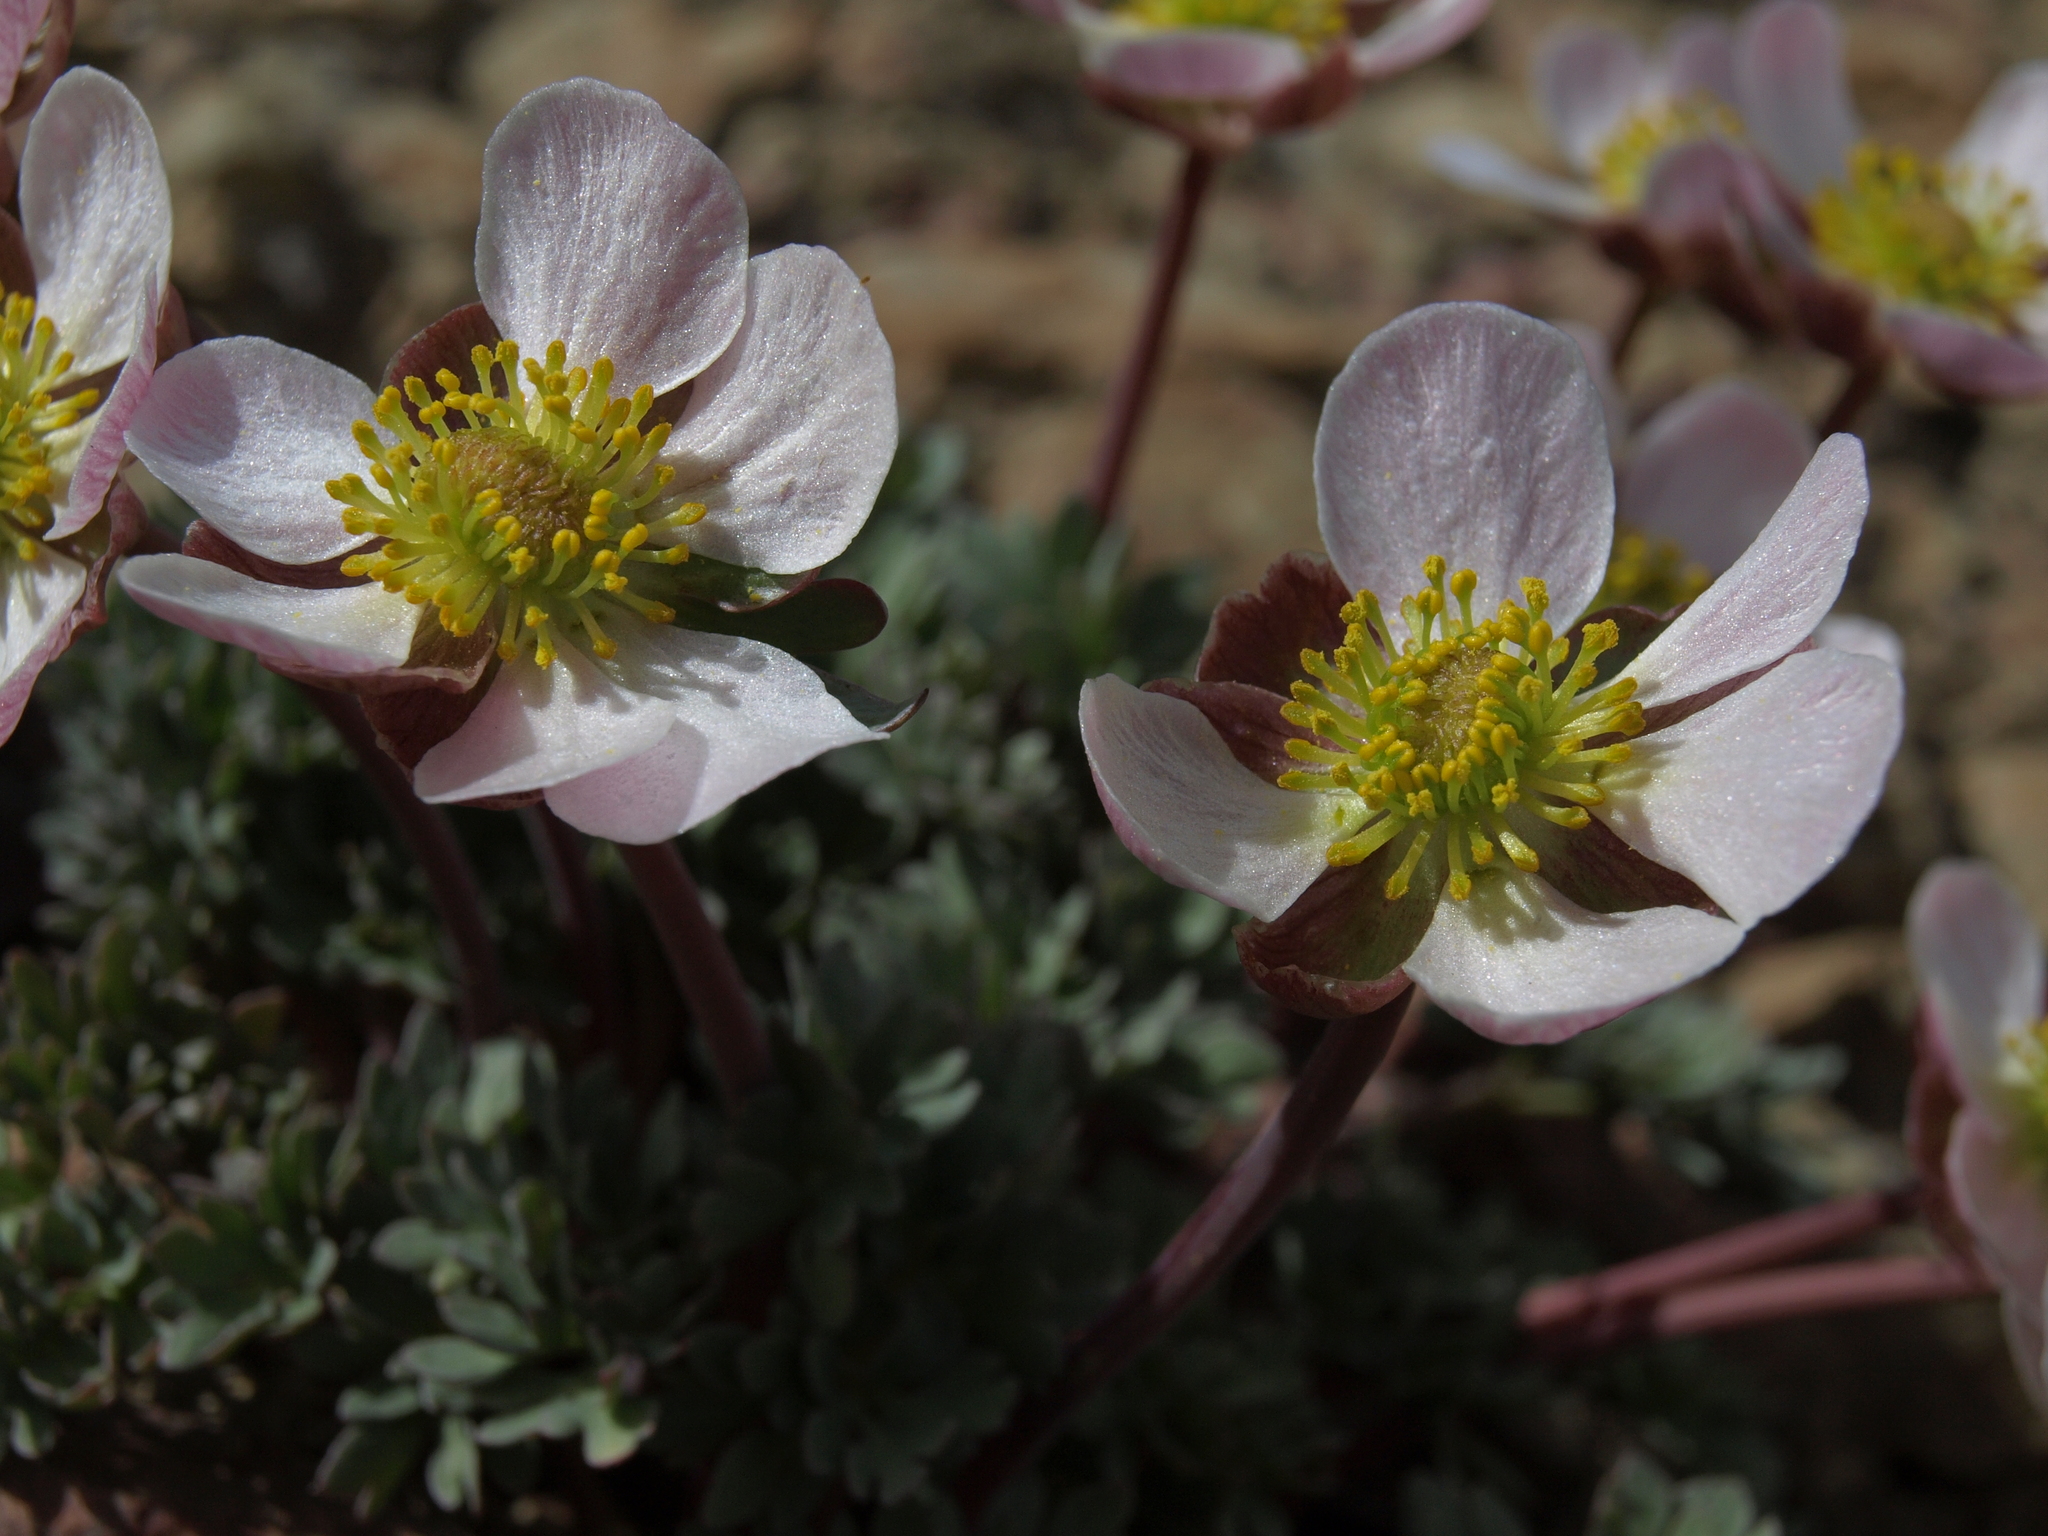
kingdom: Plantae
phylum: Tracheophyta
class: Magnoliopsida
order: Ranunculales
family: Ranunculaceae
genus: Beckwithia
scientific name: Beckwithia andersonii
